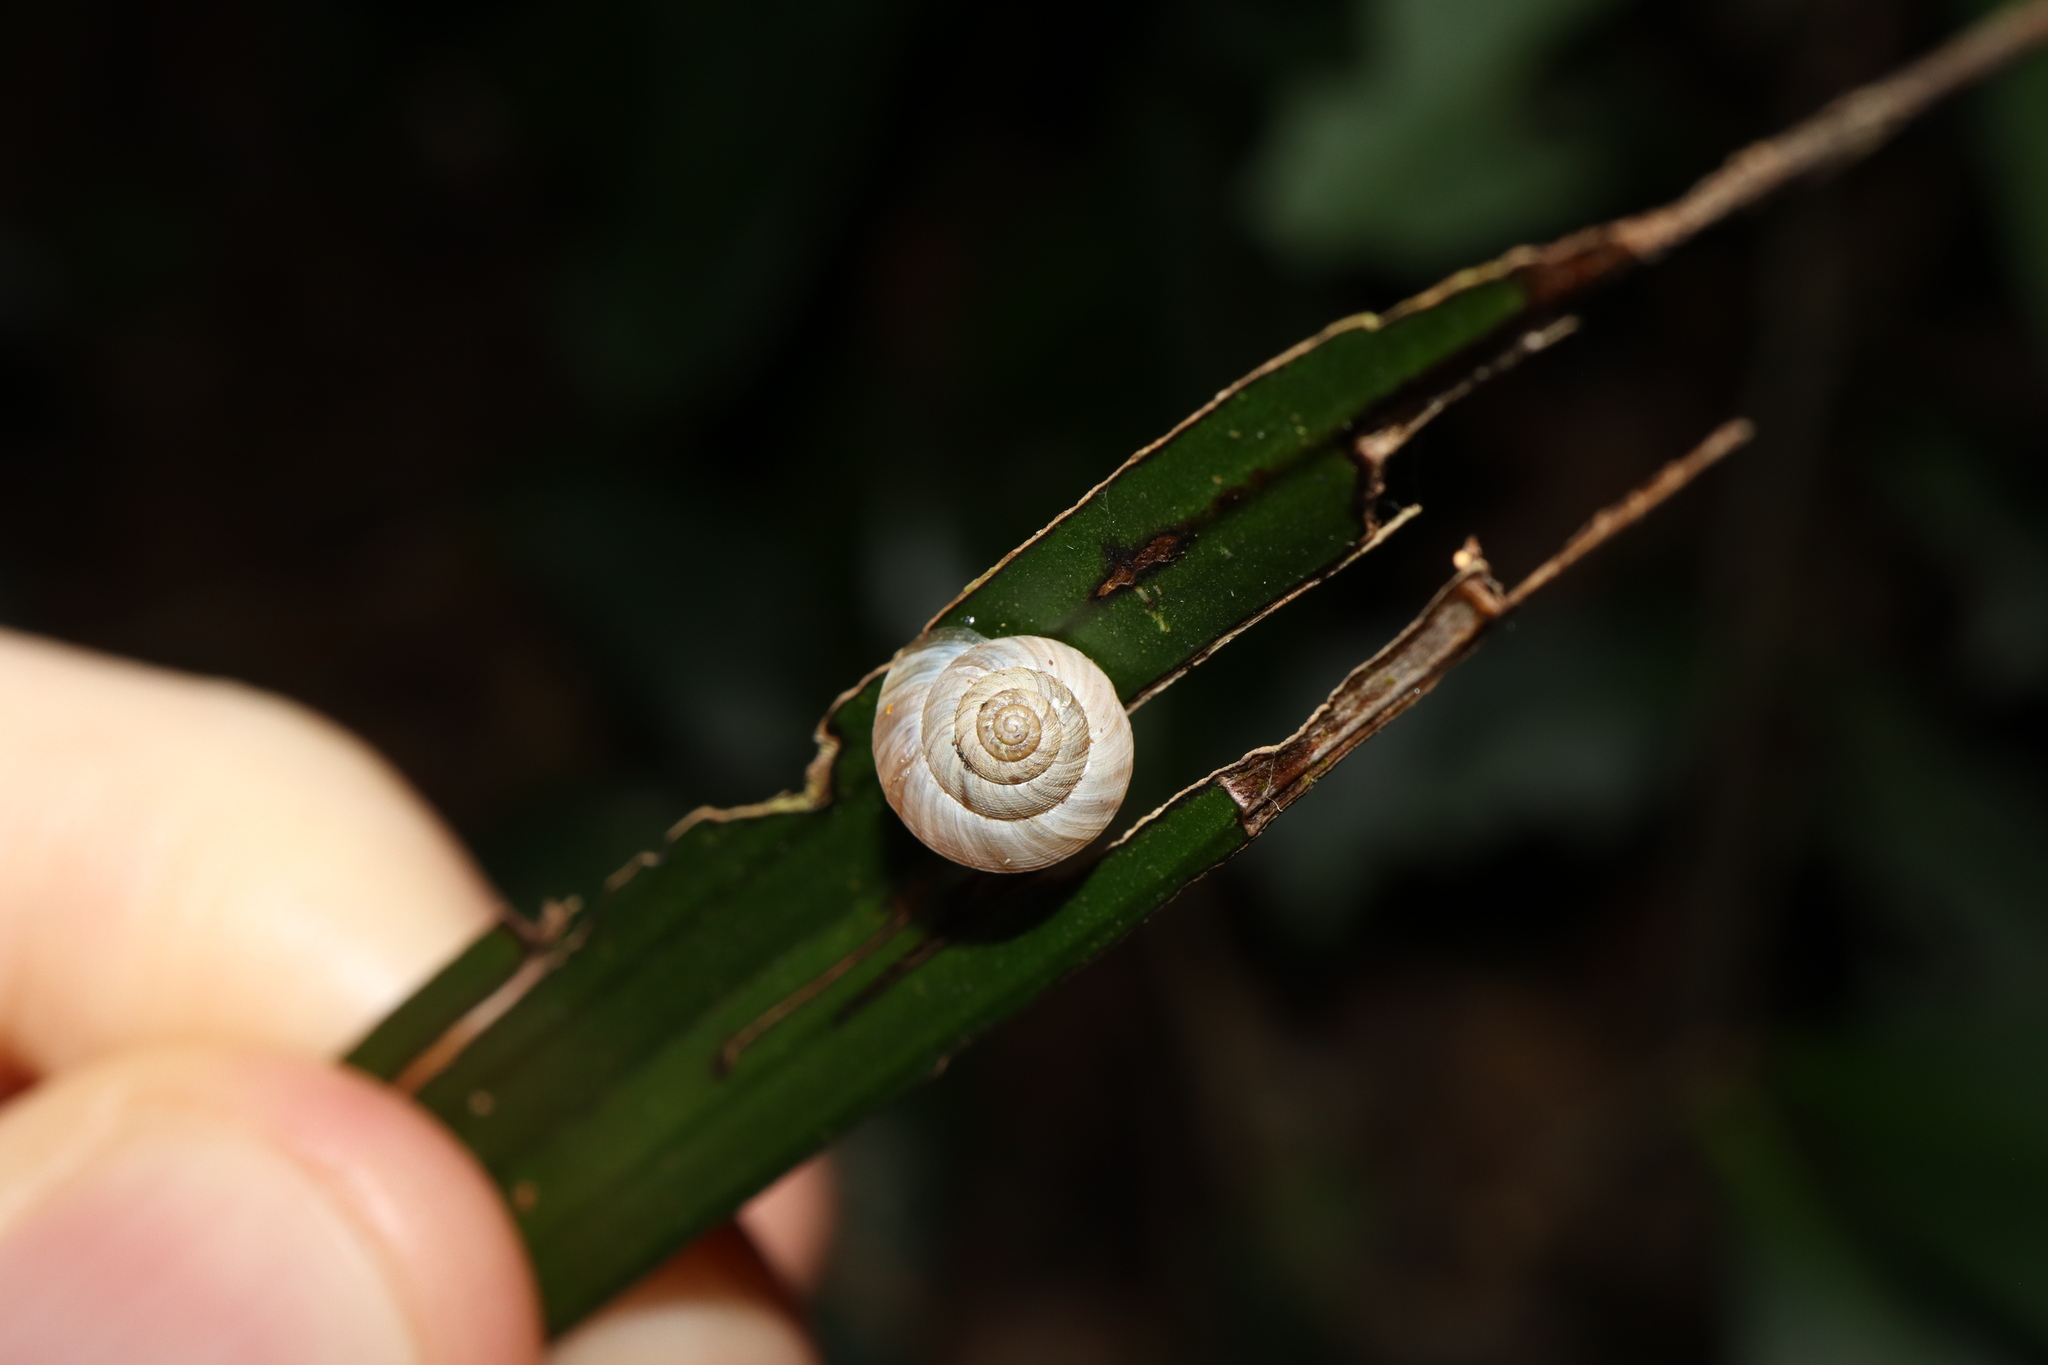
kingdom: Animalia
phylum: Mollusca
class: Gastropoda
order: Stylommatophora
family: Charopidae
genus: Hedleyoconcha
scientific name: Hedleyoconcha delta
